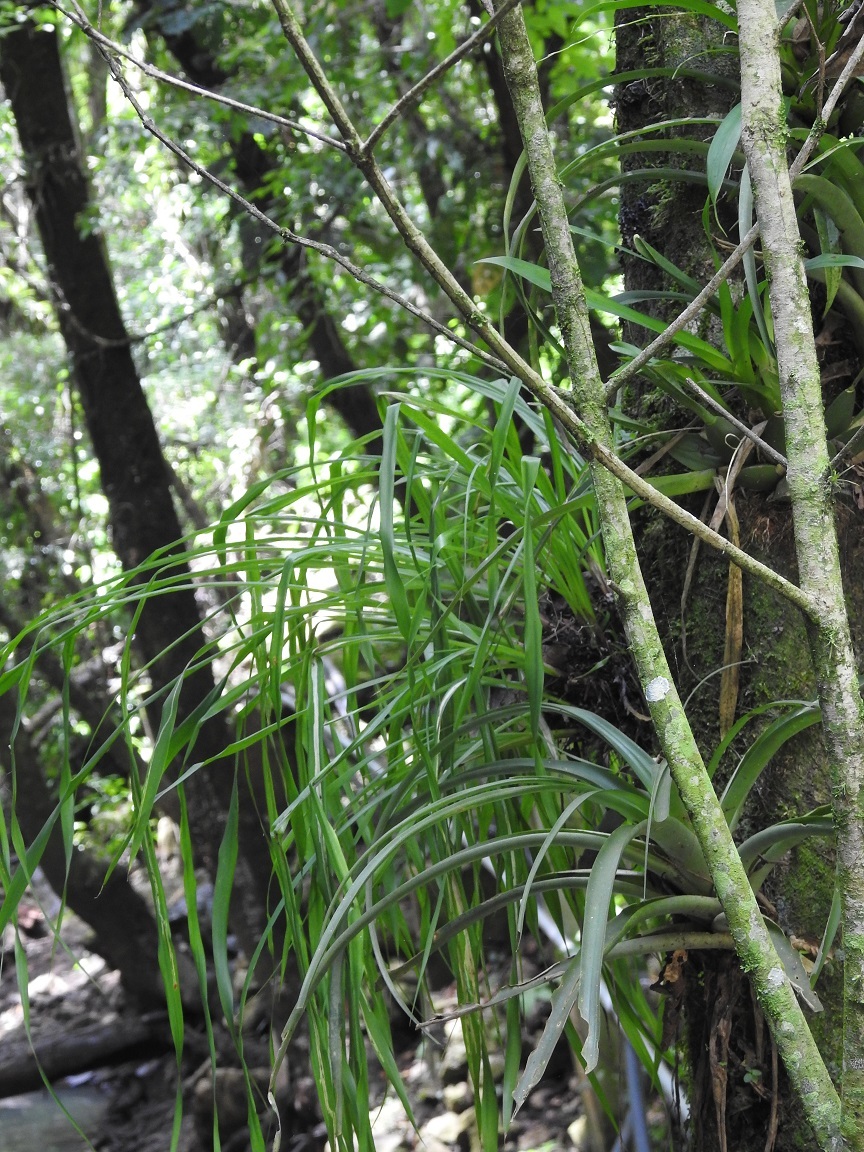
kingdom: Plantae
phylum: Tracheophyta
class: Liliopsida
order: Poales
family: Bromeliaceae
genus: Pitcairnia
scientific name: Pitcairnia heterophylla
